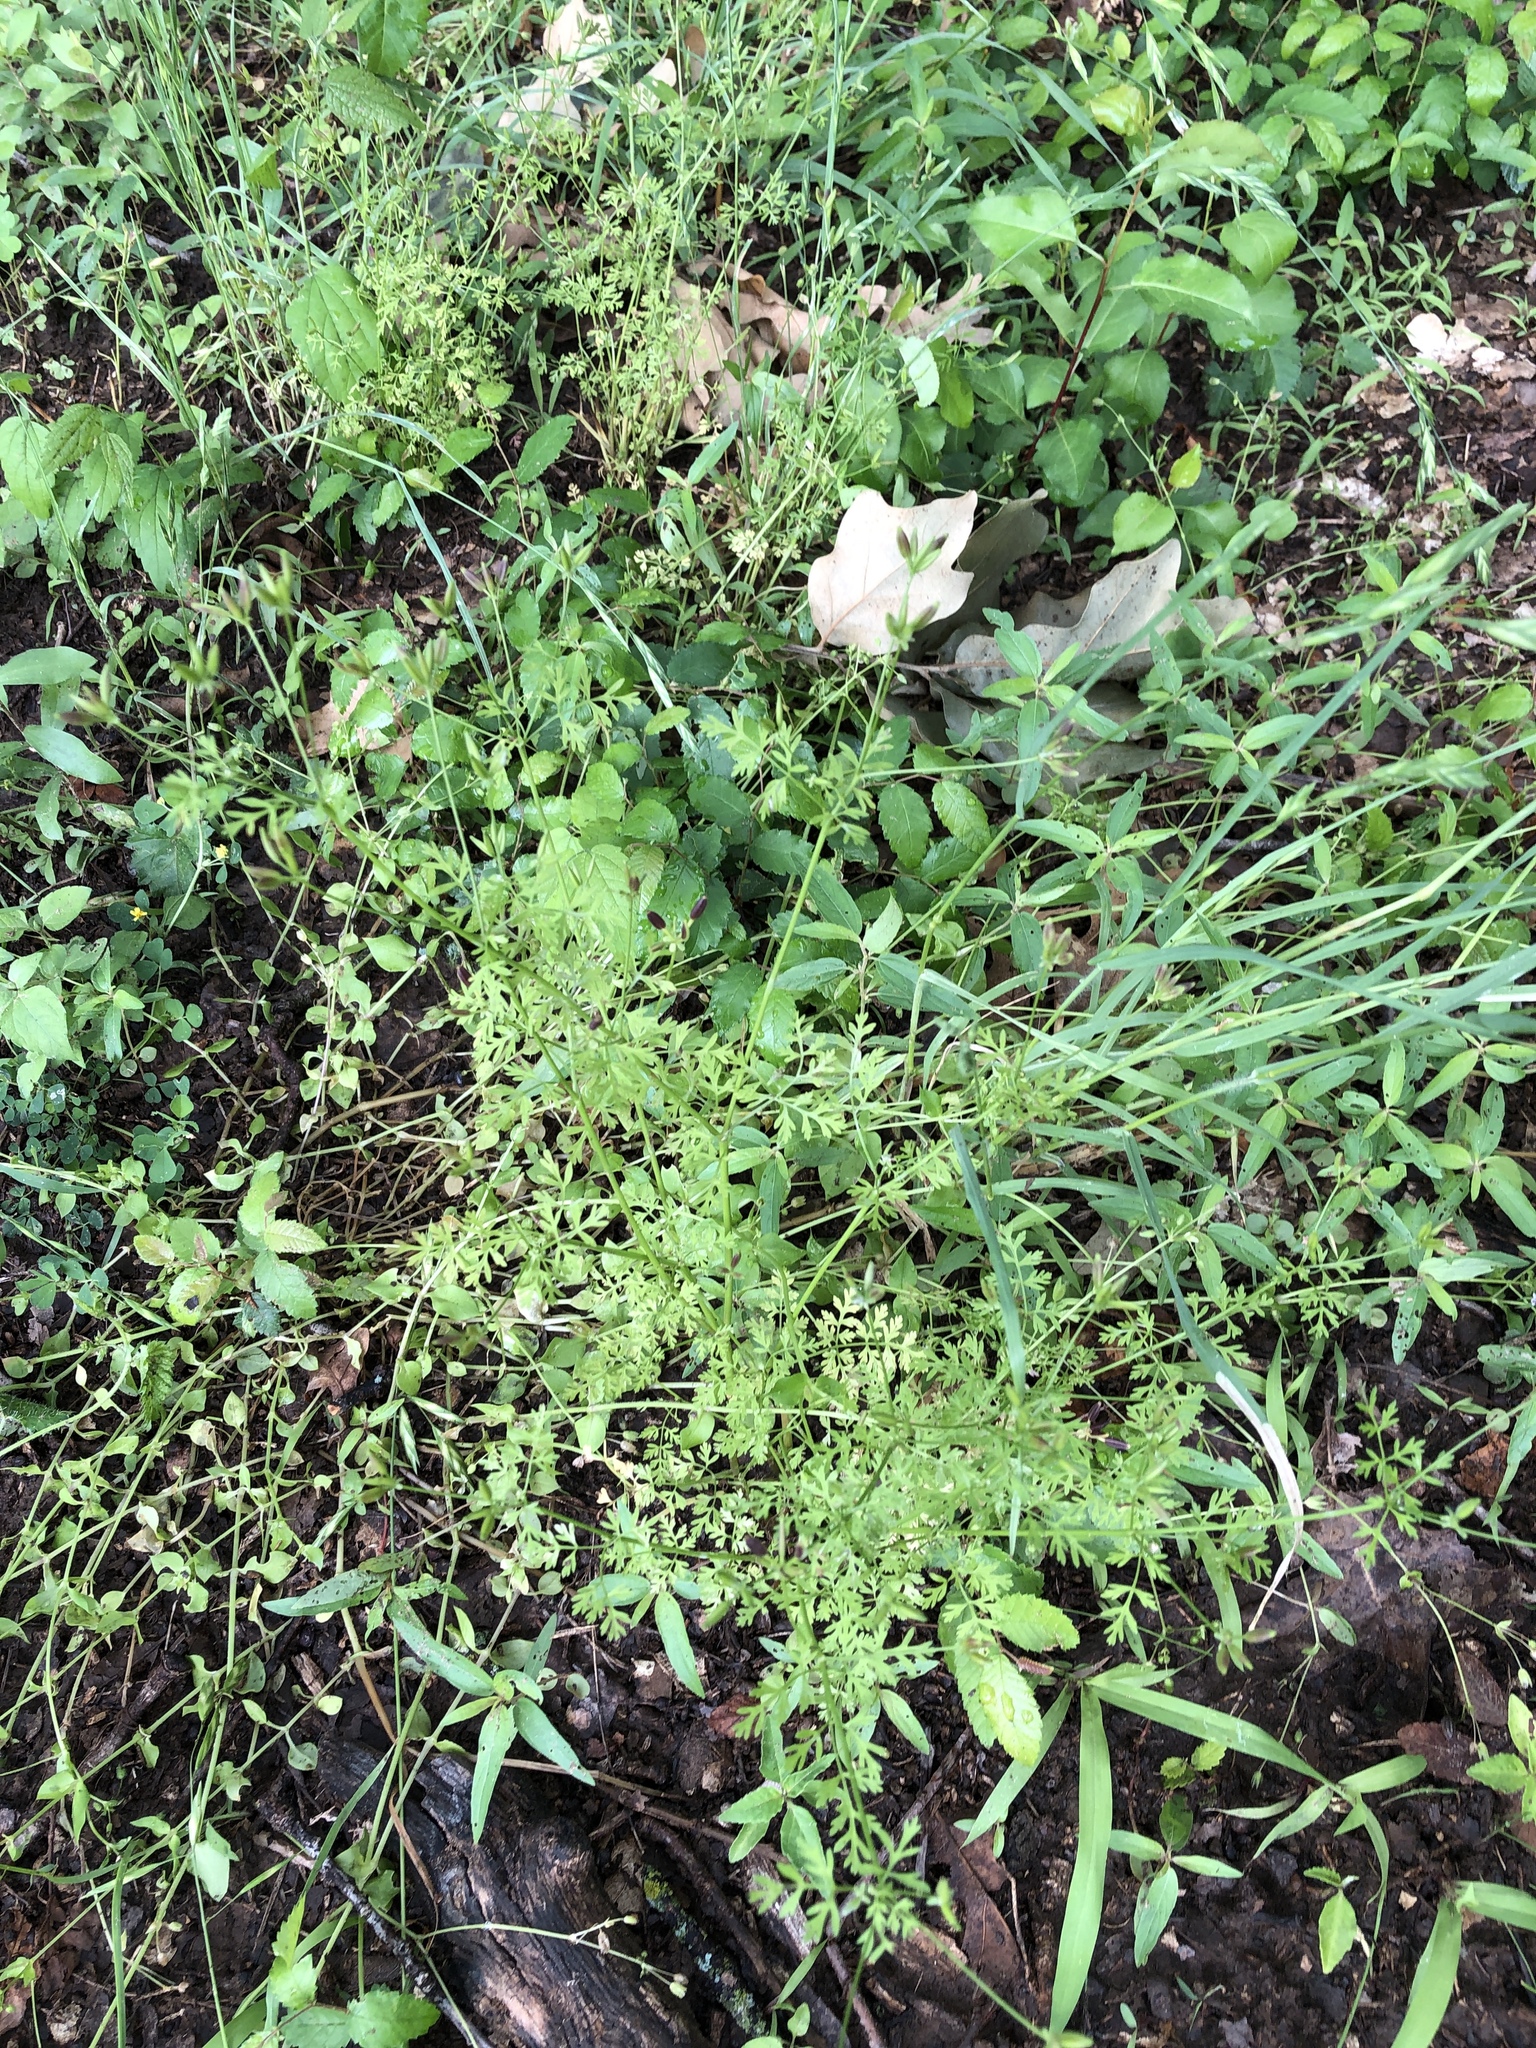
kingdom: Plantae
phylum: Tracheophyta
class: Magnoliopsida
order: Apiales
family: Apiaceae
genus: Chaerophyllum
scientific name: Chaerophyllum tainturieri
